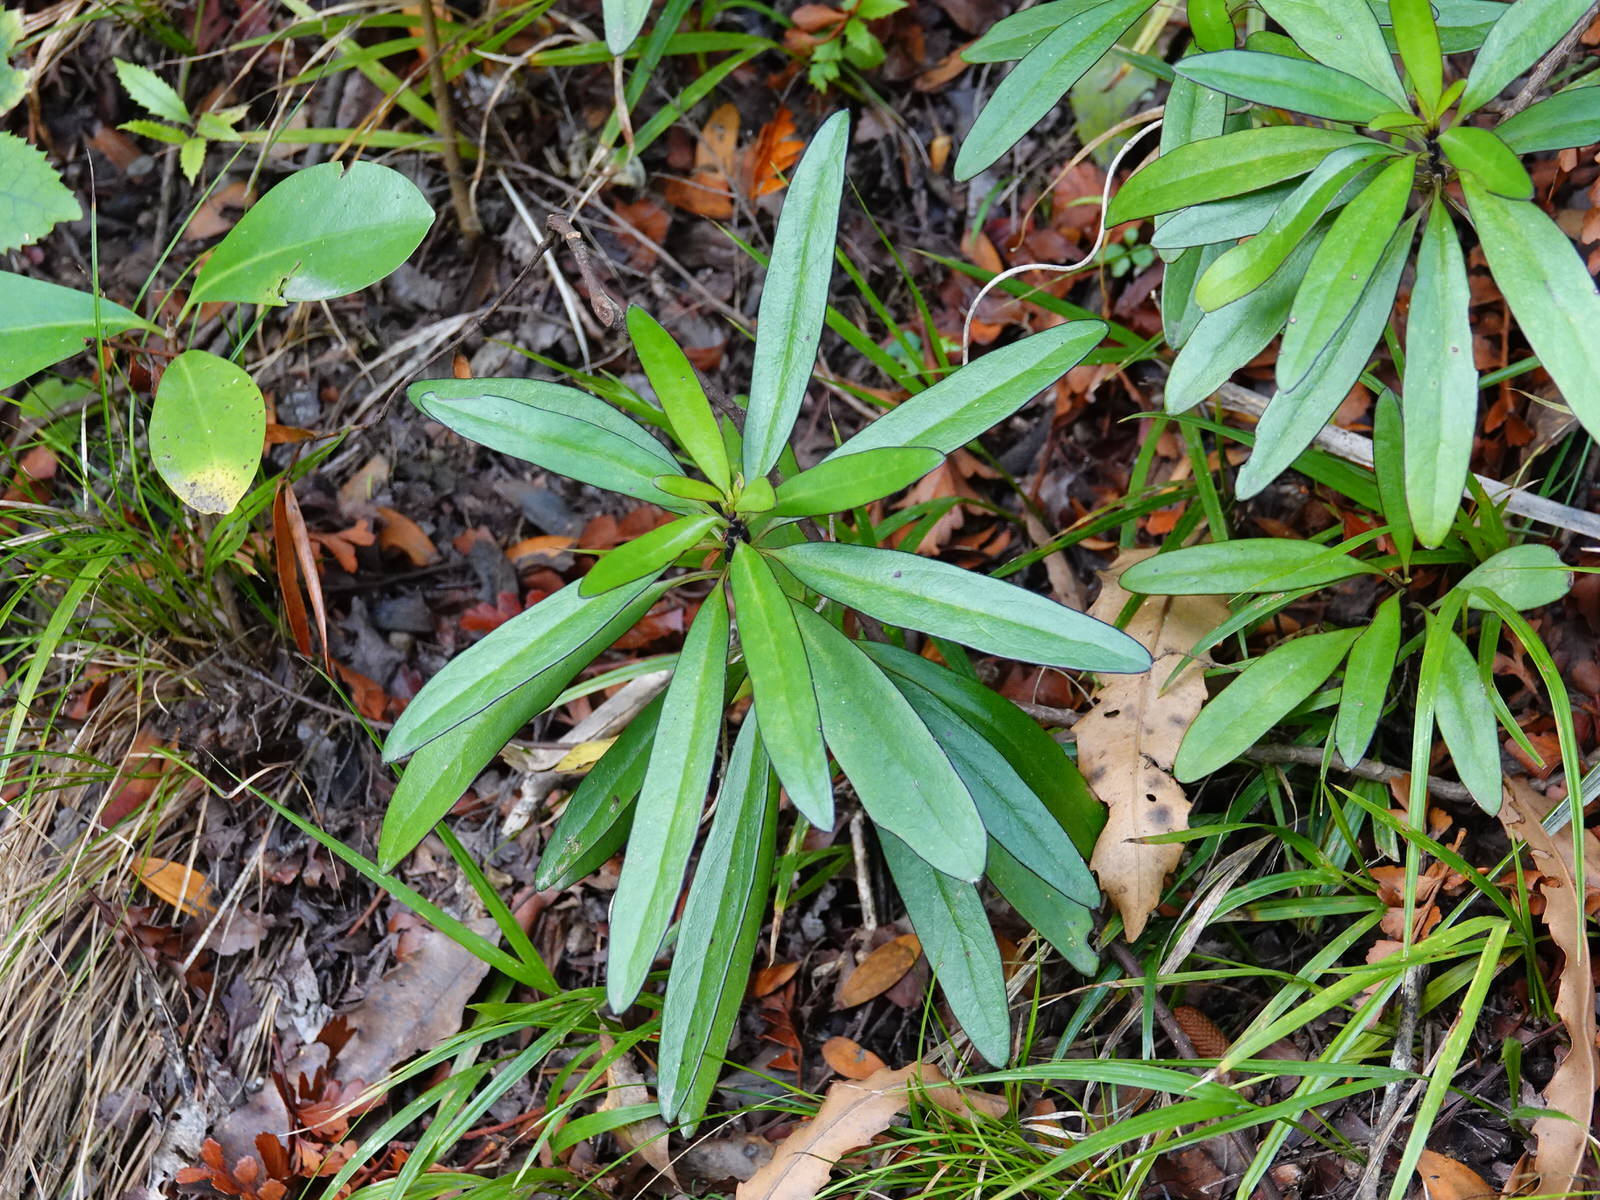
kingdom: Plantae
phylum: Tracheophyta
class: Magnoliopsida
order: Asterales
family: Asteraceae
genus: Brachyglottis
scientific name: Brachyglottis kirkii
